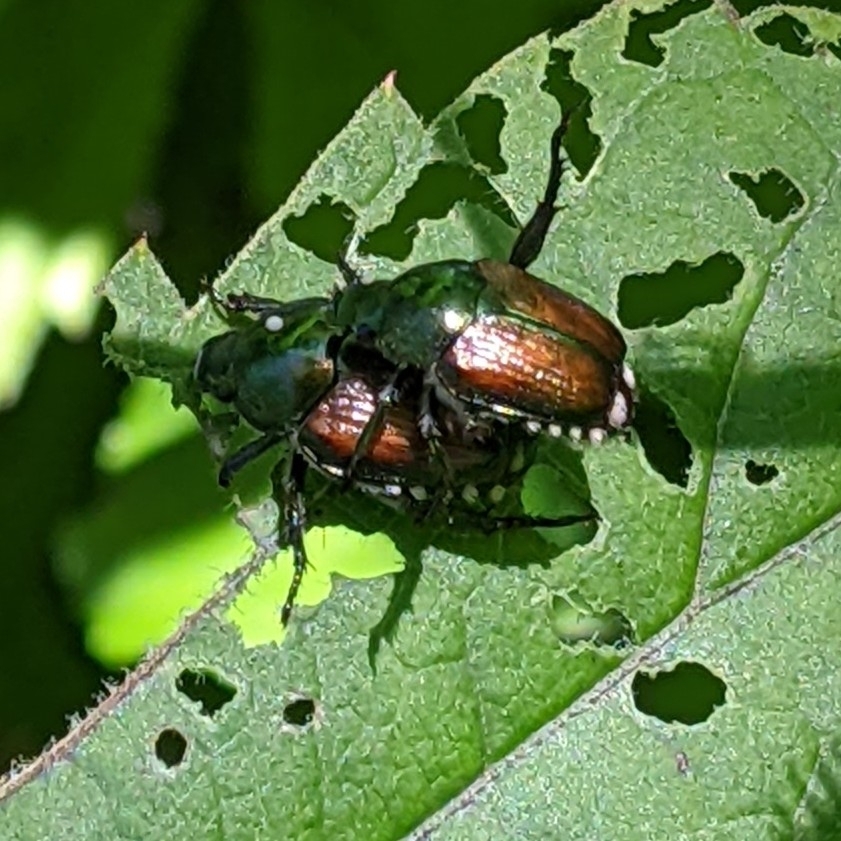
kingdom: Animalia
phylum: Arthropoda
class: Insecta
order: Coleoptera
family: Scarabaeidae
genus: Popillia
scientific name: Popillia japonica
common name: Japanese beetle
